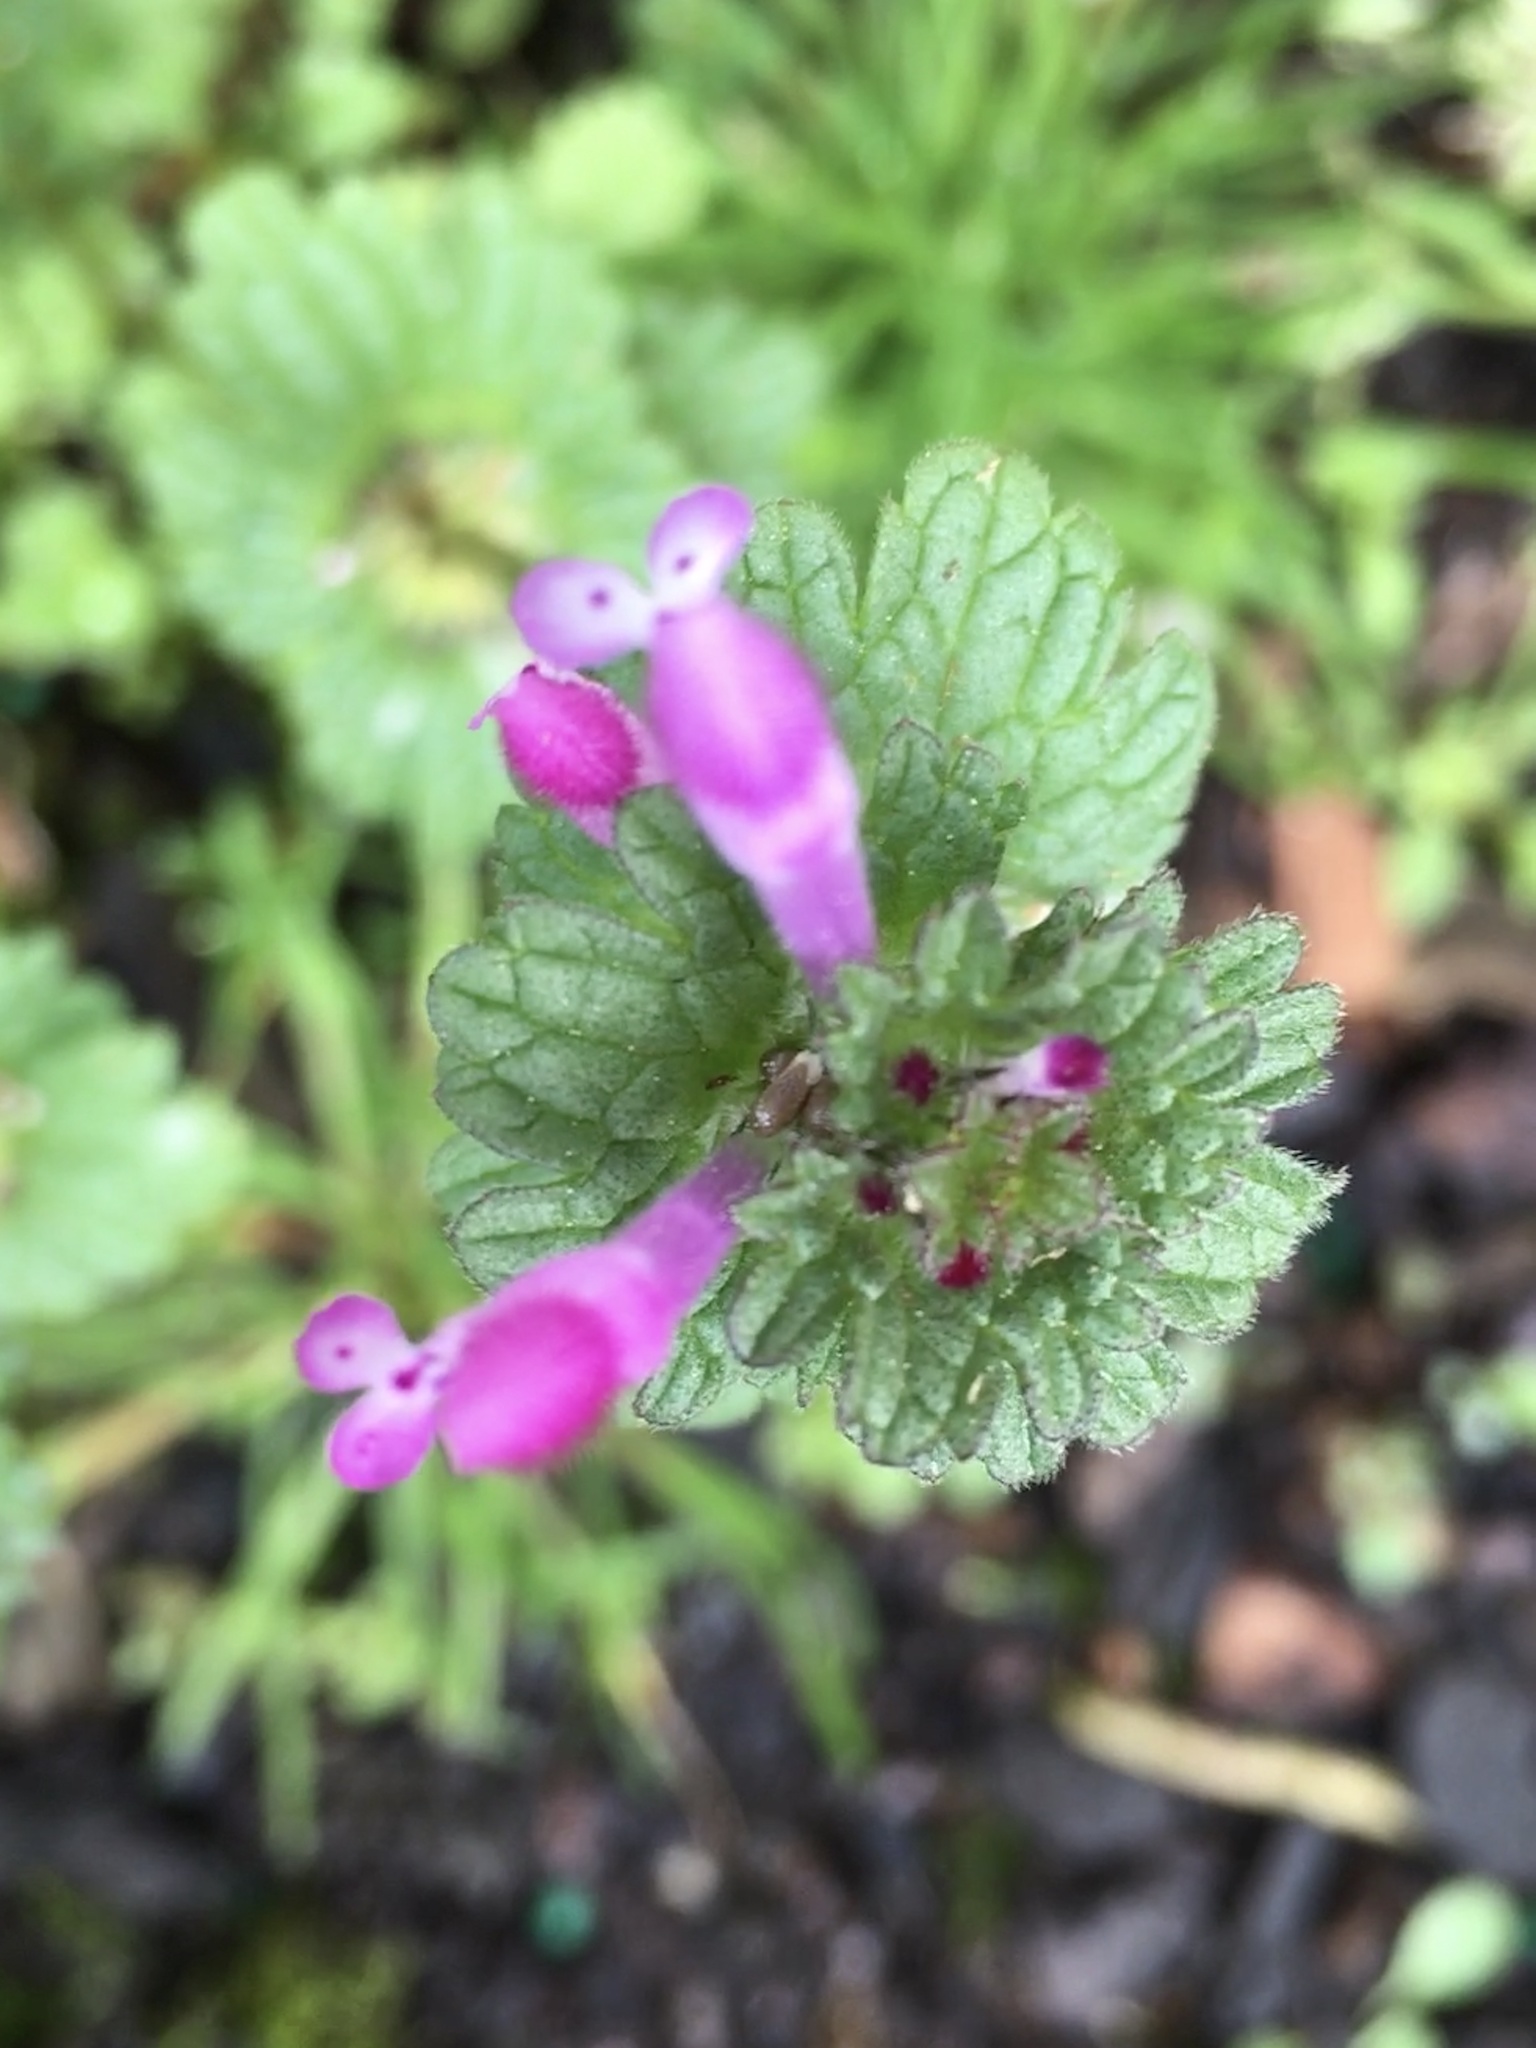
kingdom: Plantae
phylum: Tracheophyta
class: Magnoliopsida
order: Lamiales
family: Lamiaceae
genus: Lamium
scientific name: Lamium amplexicaule
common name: Henbit dead-nettle
